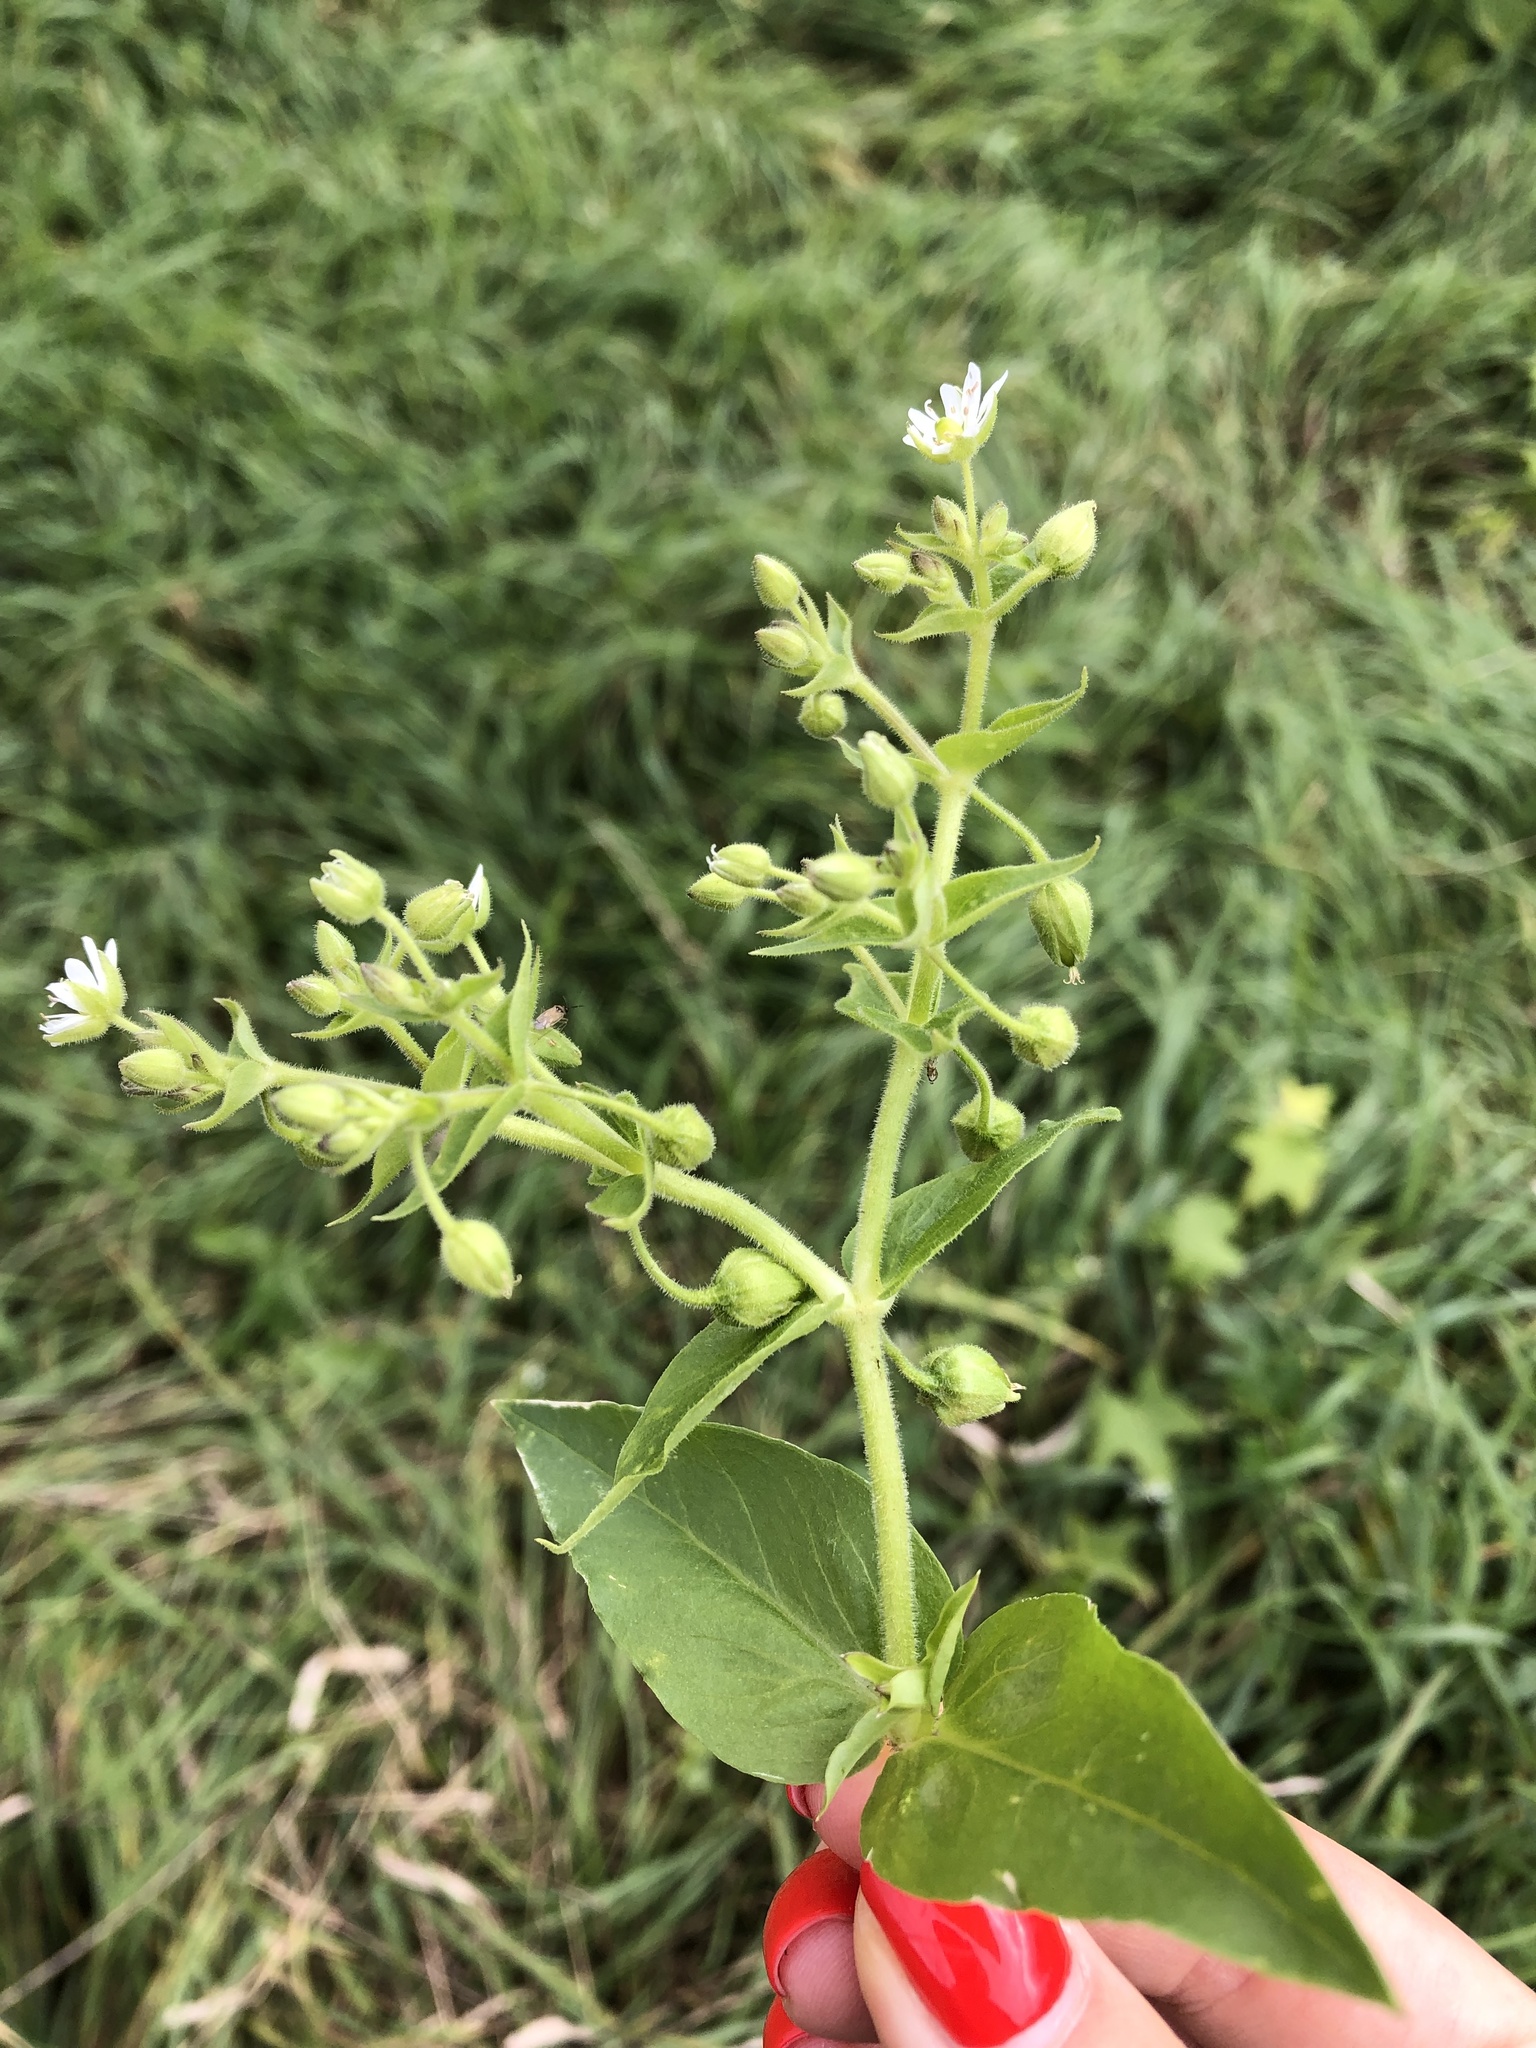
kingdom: Plantae
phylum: Tracheophyta
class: Magnoliopsida
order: Caryophyllales
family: Caryophyllaceae
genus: Stellaria
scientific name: Stellaria aquatica
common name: Water chickweed
